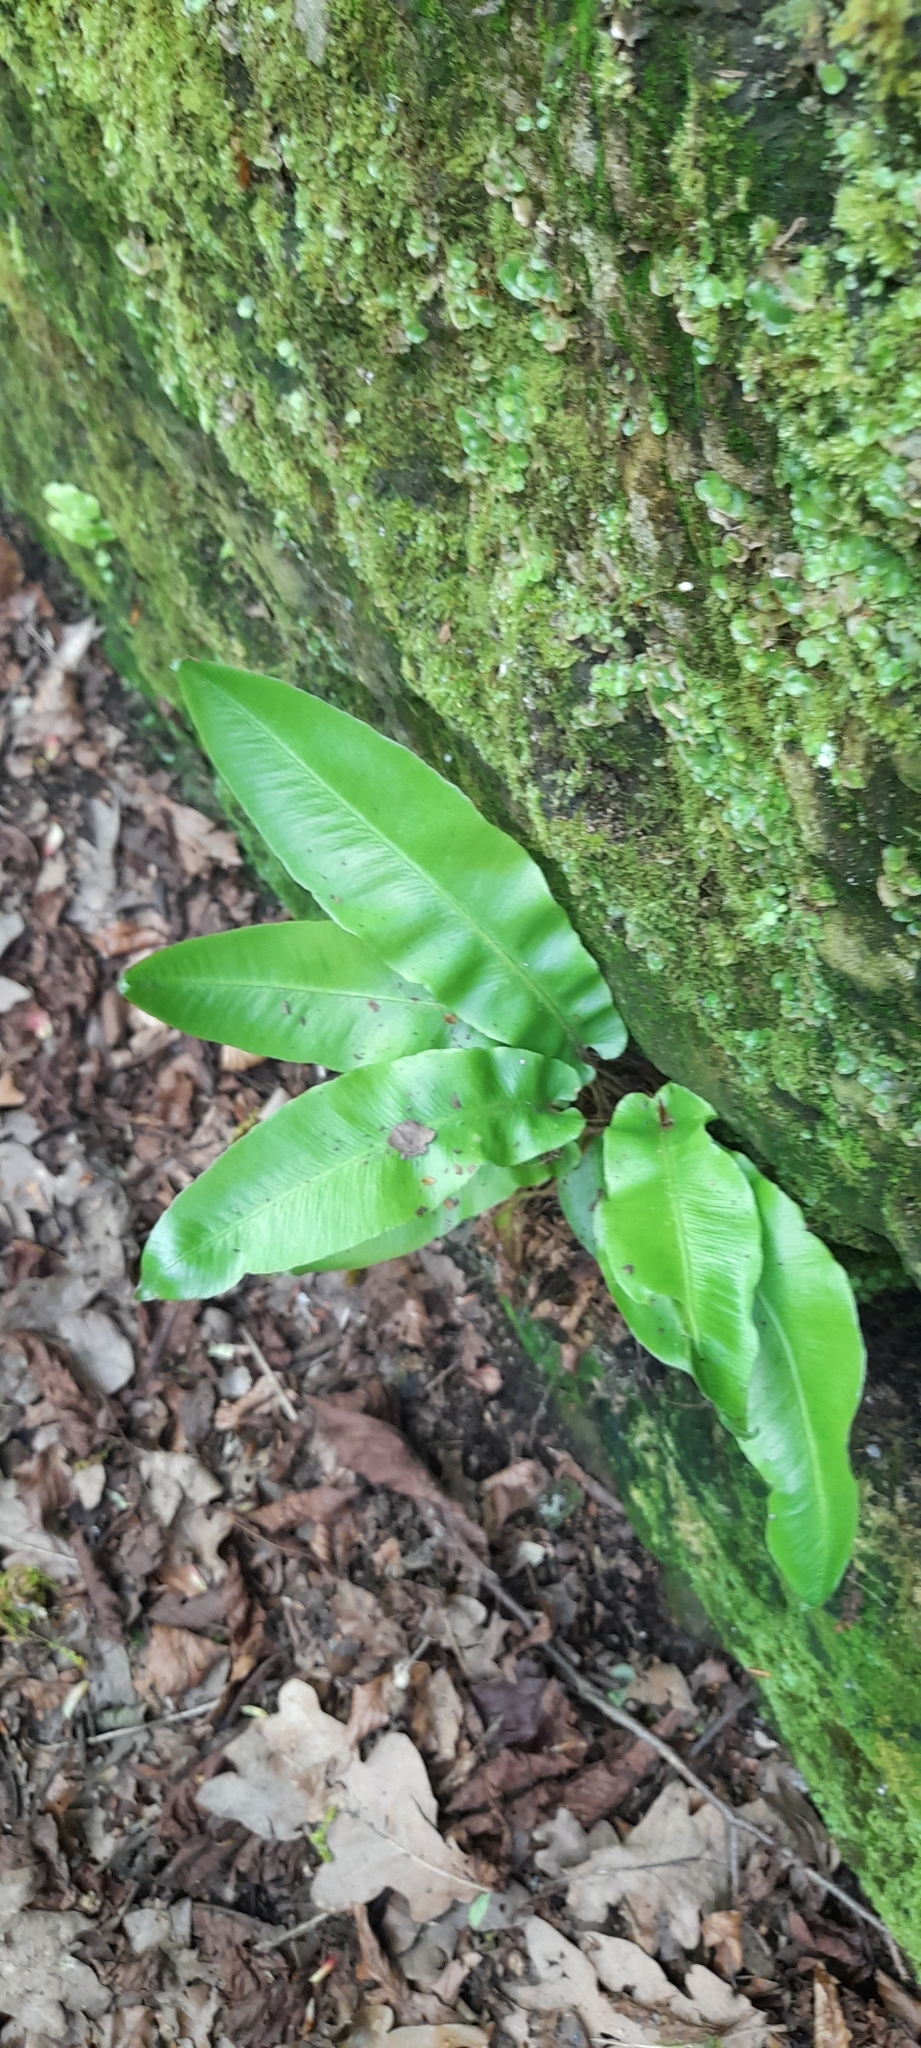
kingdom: Plantae
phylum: Tracheophyta
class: Polypodiopsida
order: Polypodiales
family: Aspleniaceae
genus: Asplenium
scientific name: Asplenium scolopendrium
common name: Hart's-tongue fern
